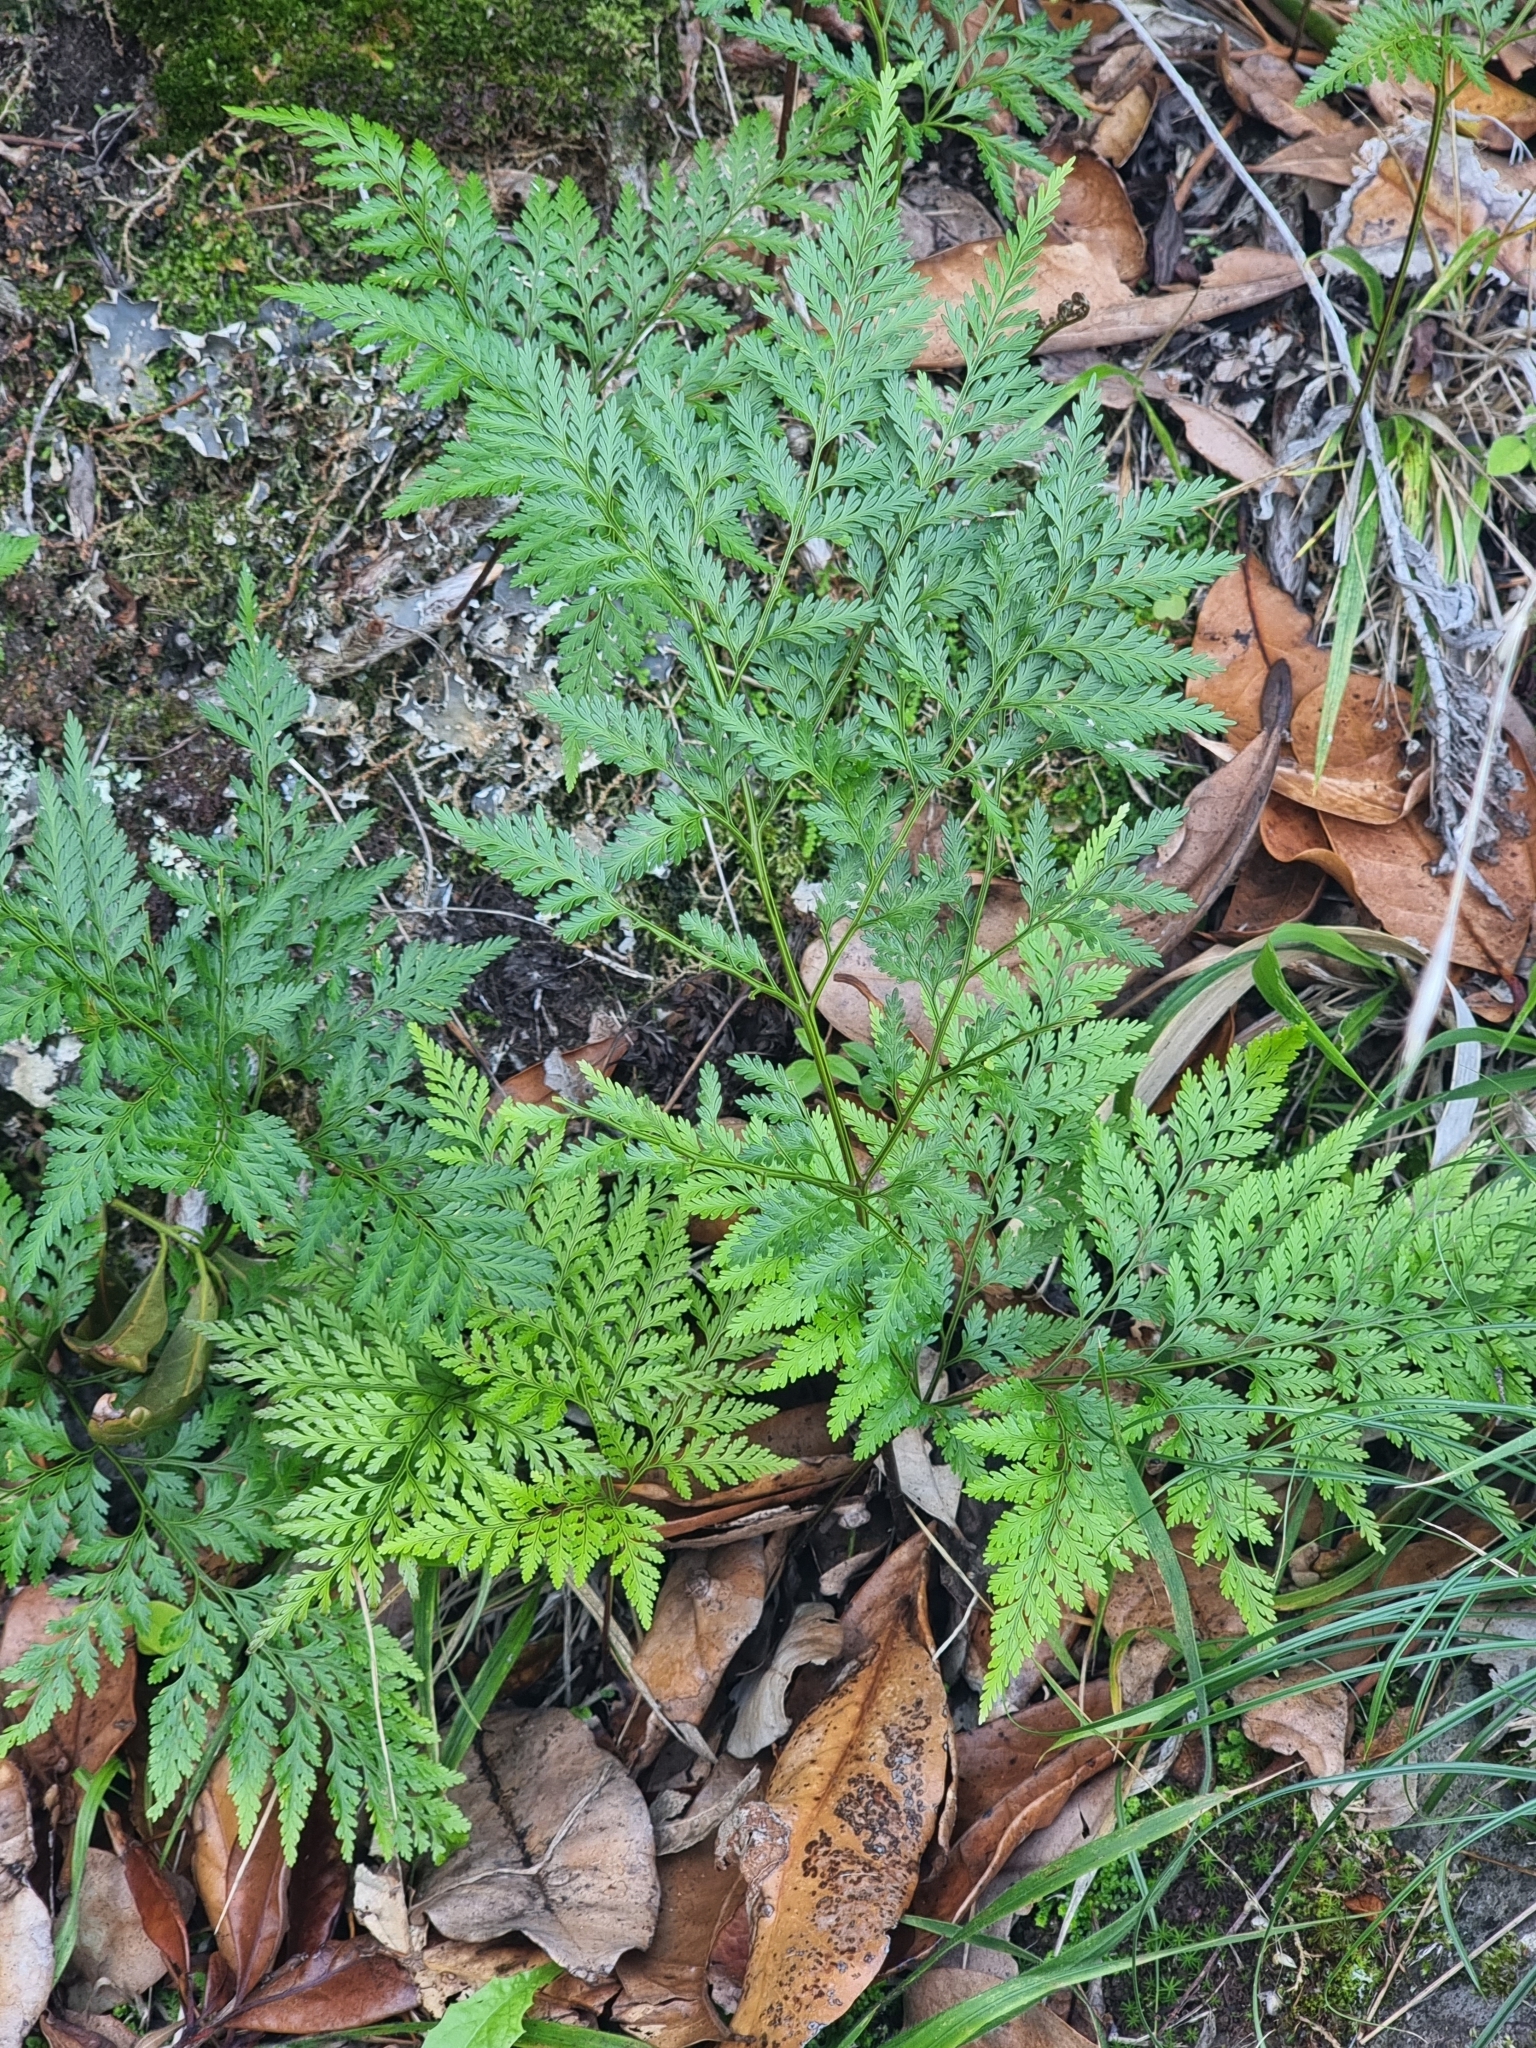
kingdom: Plantae
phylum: Tracheophyta
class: Polypodiopsida
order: Polypodiales
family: Davalliaceae
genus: Davallia
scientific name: Davallia canariensis
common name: Hare's-foot fern
